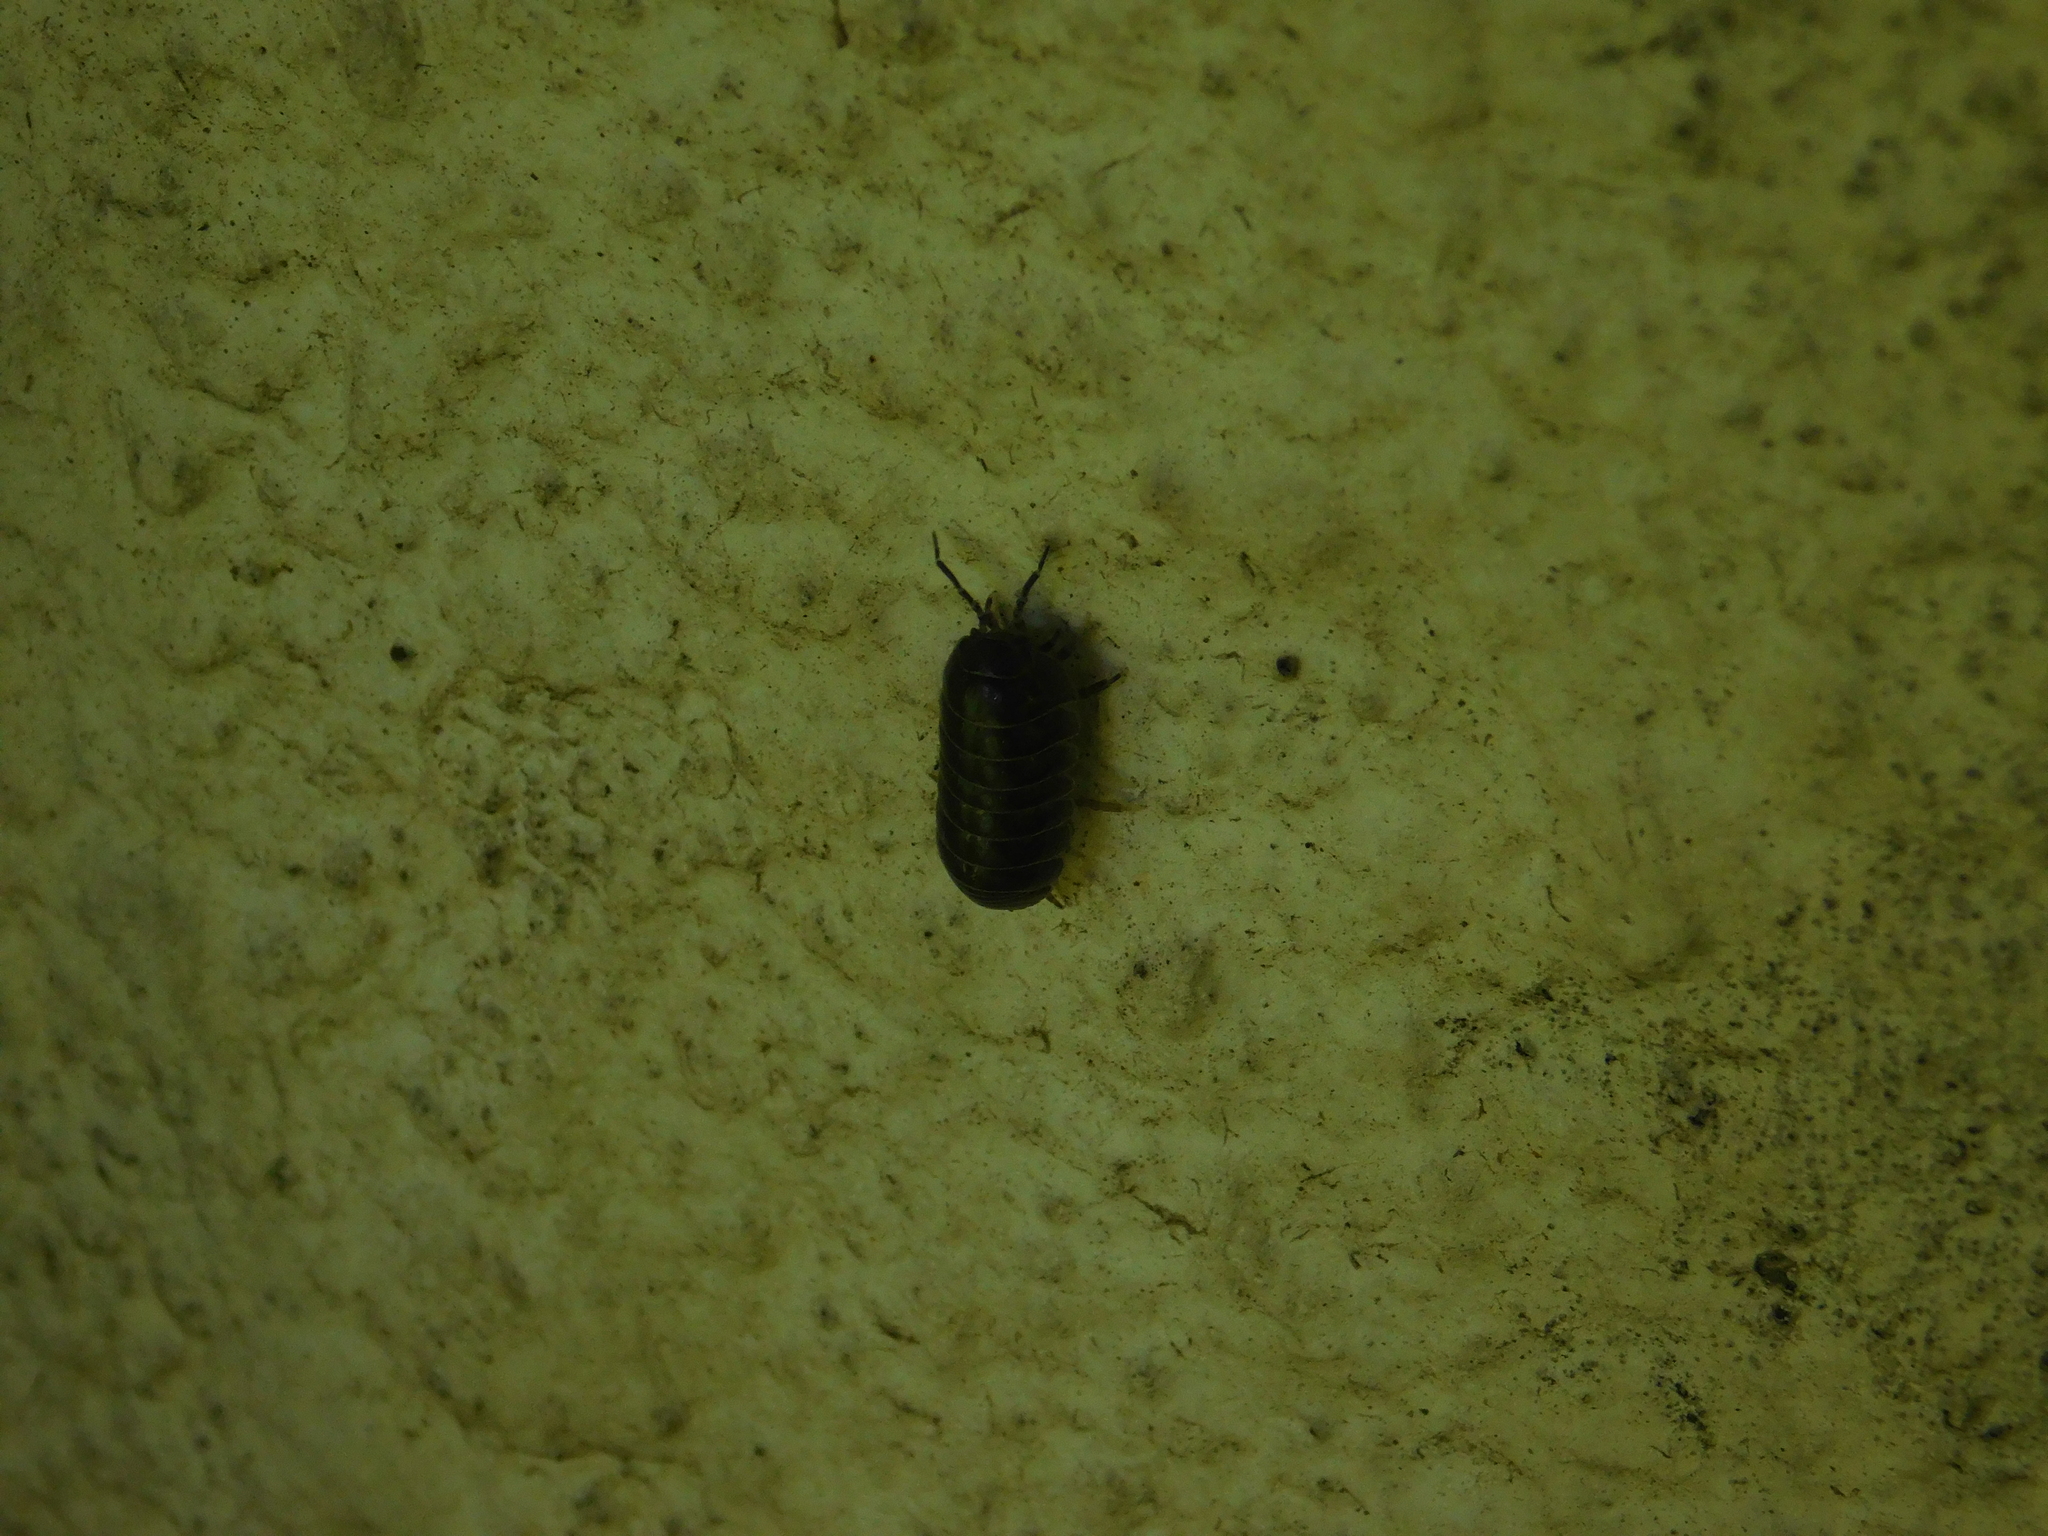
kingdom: Animalia
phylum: Arthropoda
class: Malacostraca
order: Isopoda
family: Armadillidiidae
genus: Armadillidium
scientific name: Armadillidium vulgare
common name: Common pill woodlouse
